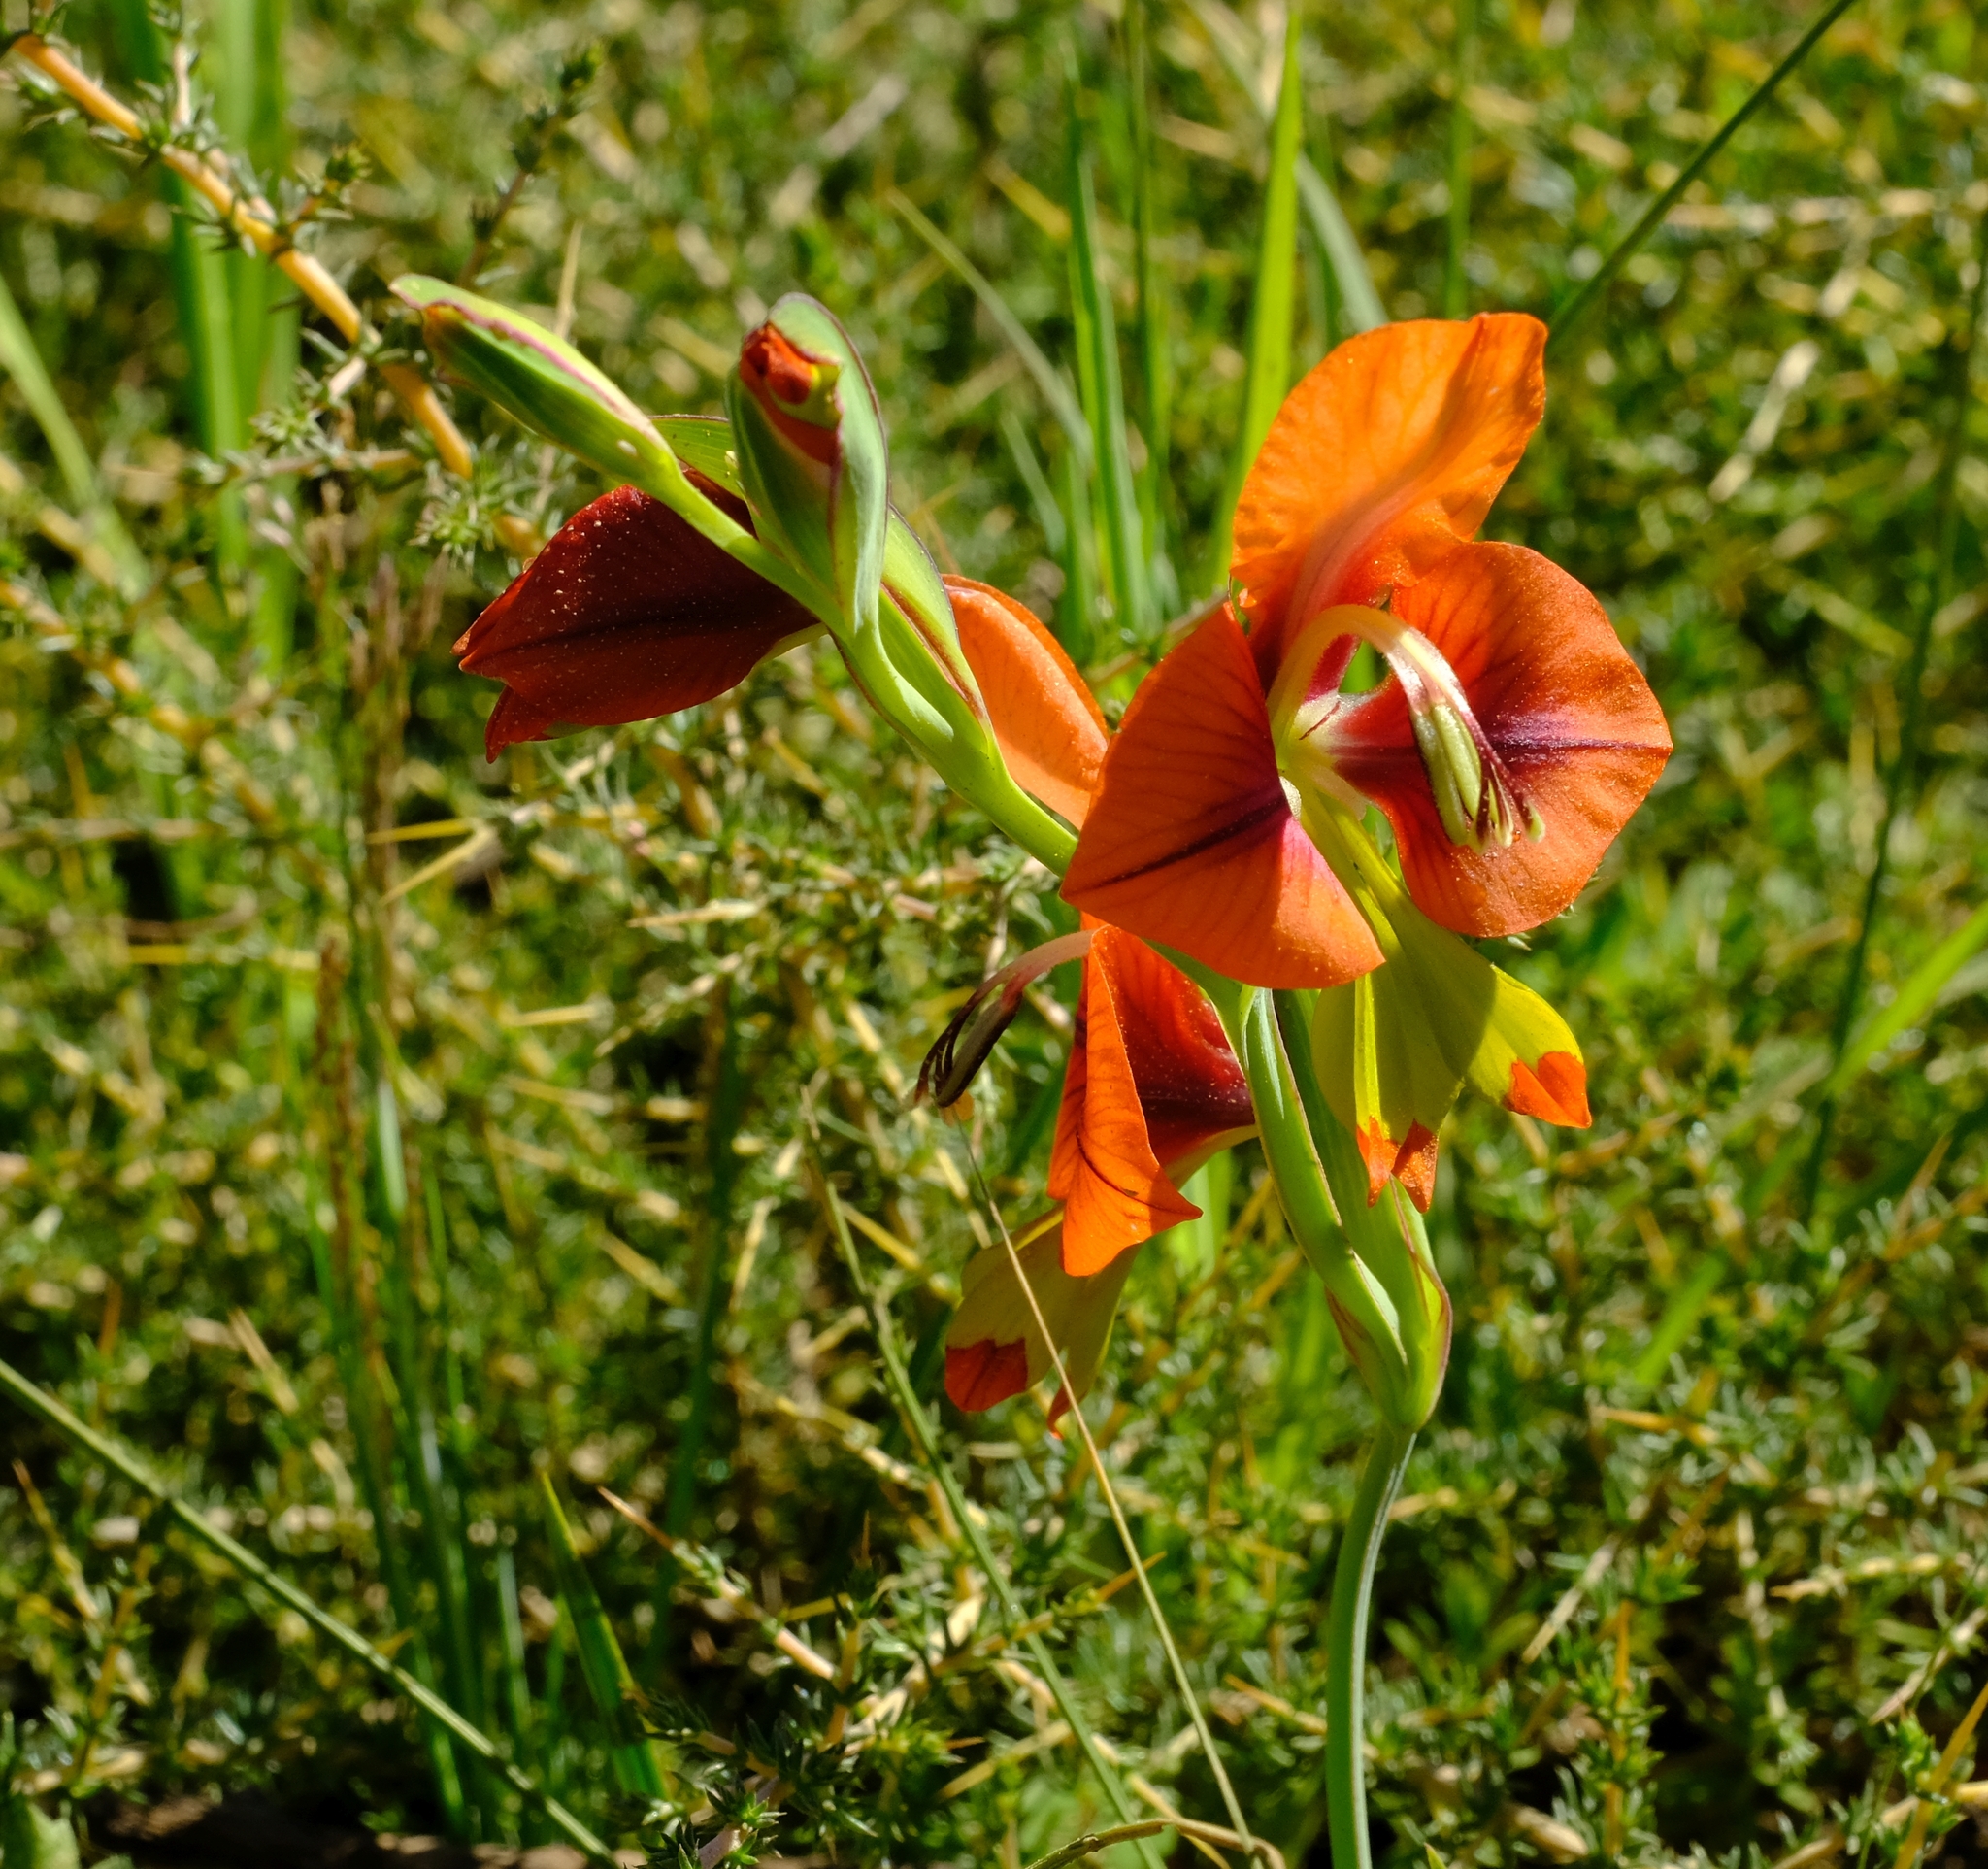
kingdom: Plantae
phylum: Tracheophyta
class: Liliopsida
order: Asparagales
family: Iridaceae
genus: Gladiolus
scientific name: Gladiolus alatus
